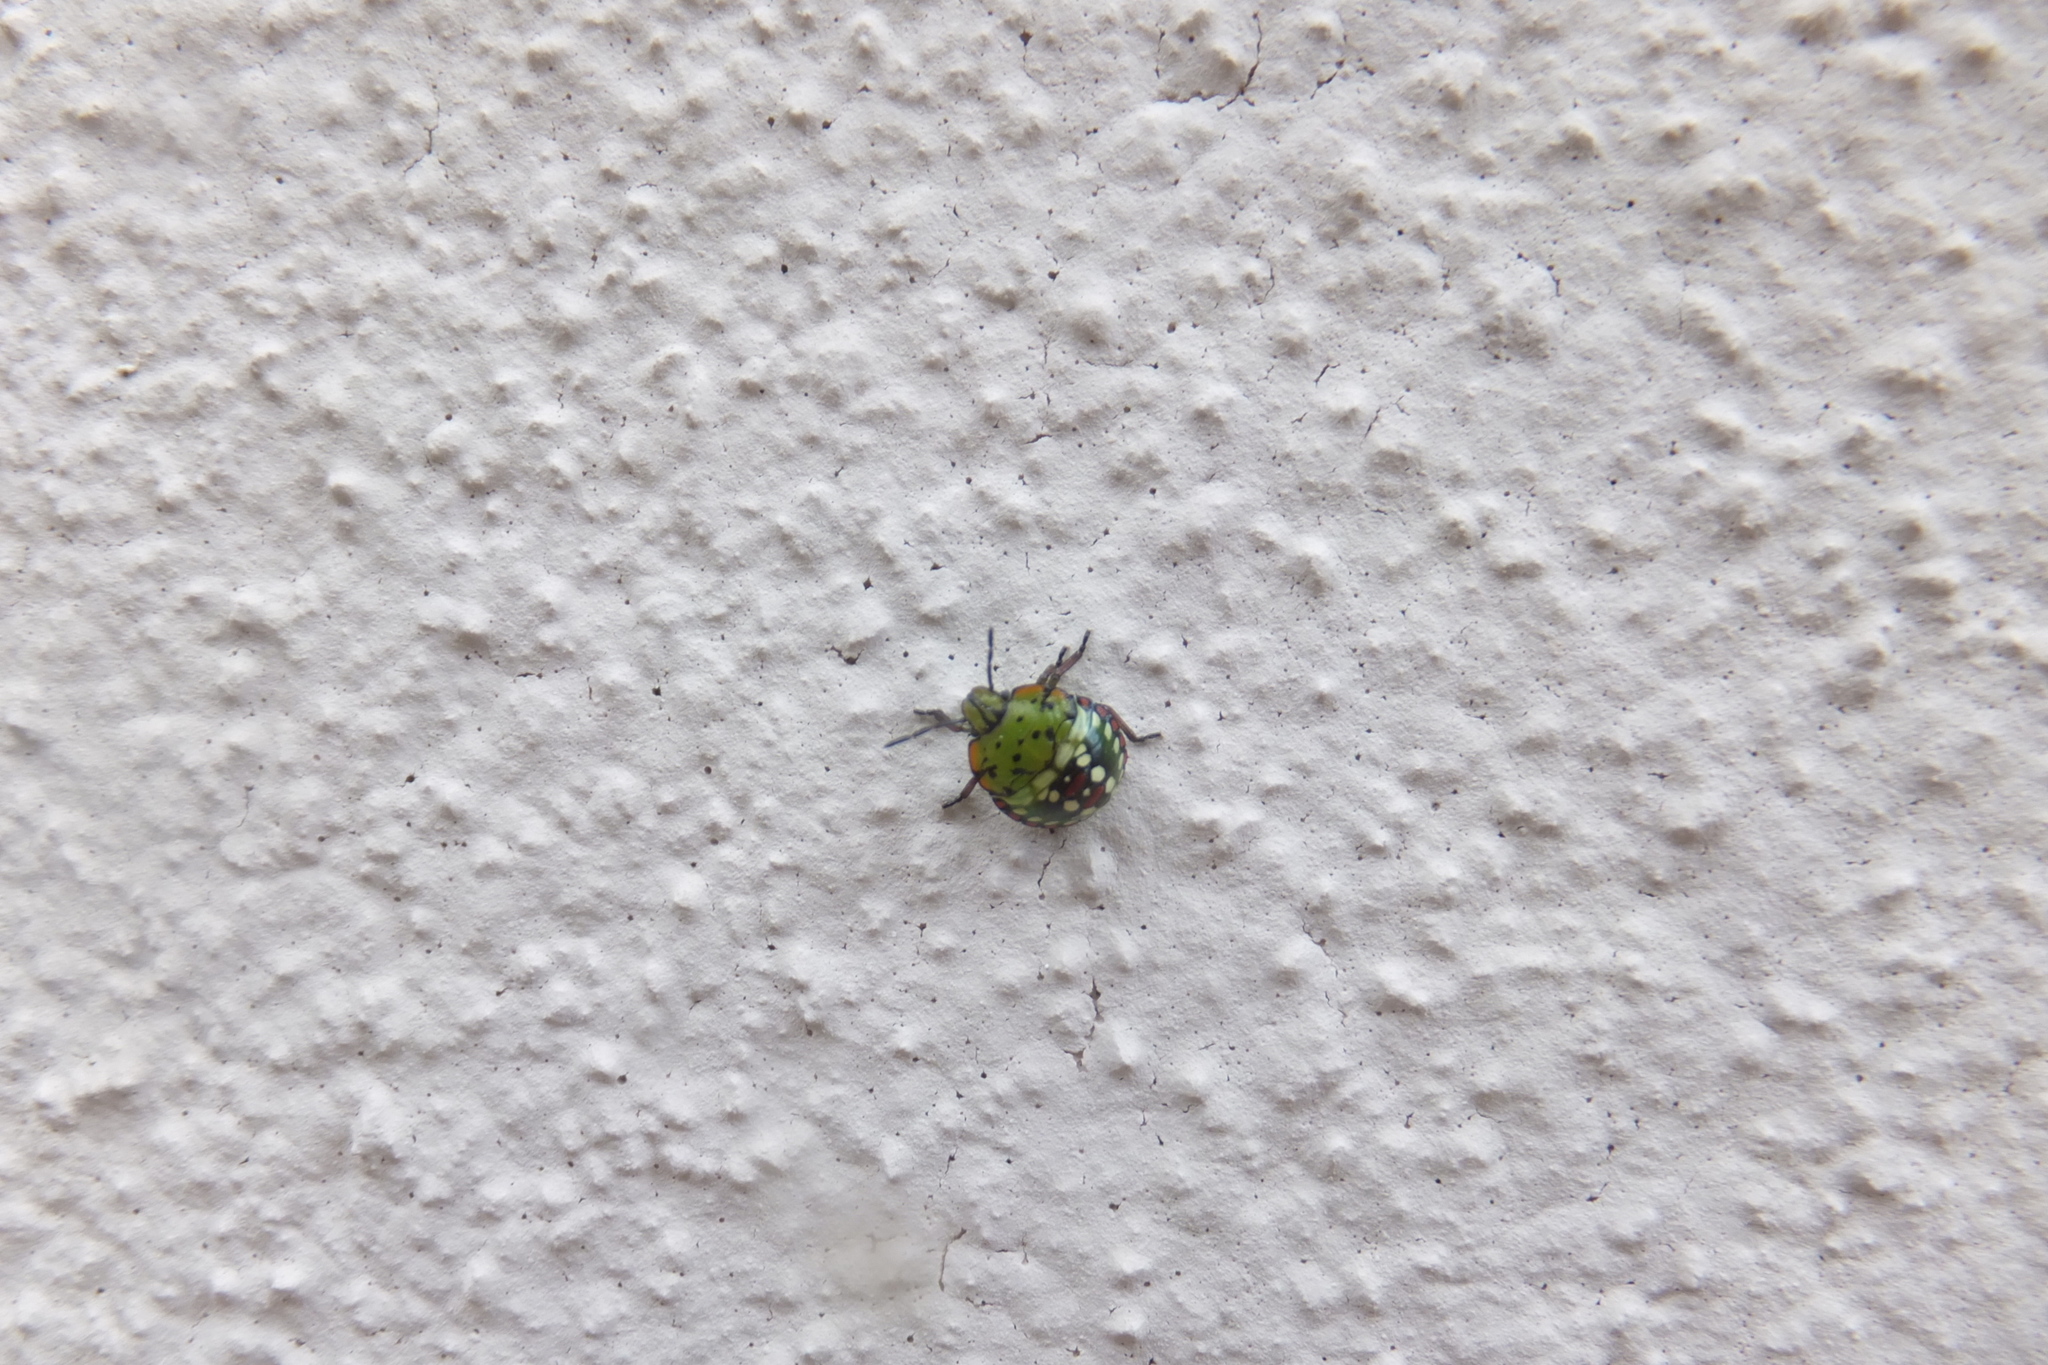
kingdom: Animalia
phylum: Arthropoda
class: Insecta
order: Hemiptera
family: Pentatomidae
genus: Nezara
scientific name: Nezara viridula
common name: Southern green stink bug
